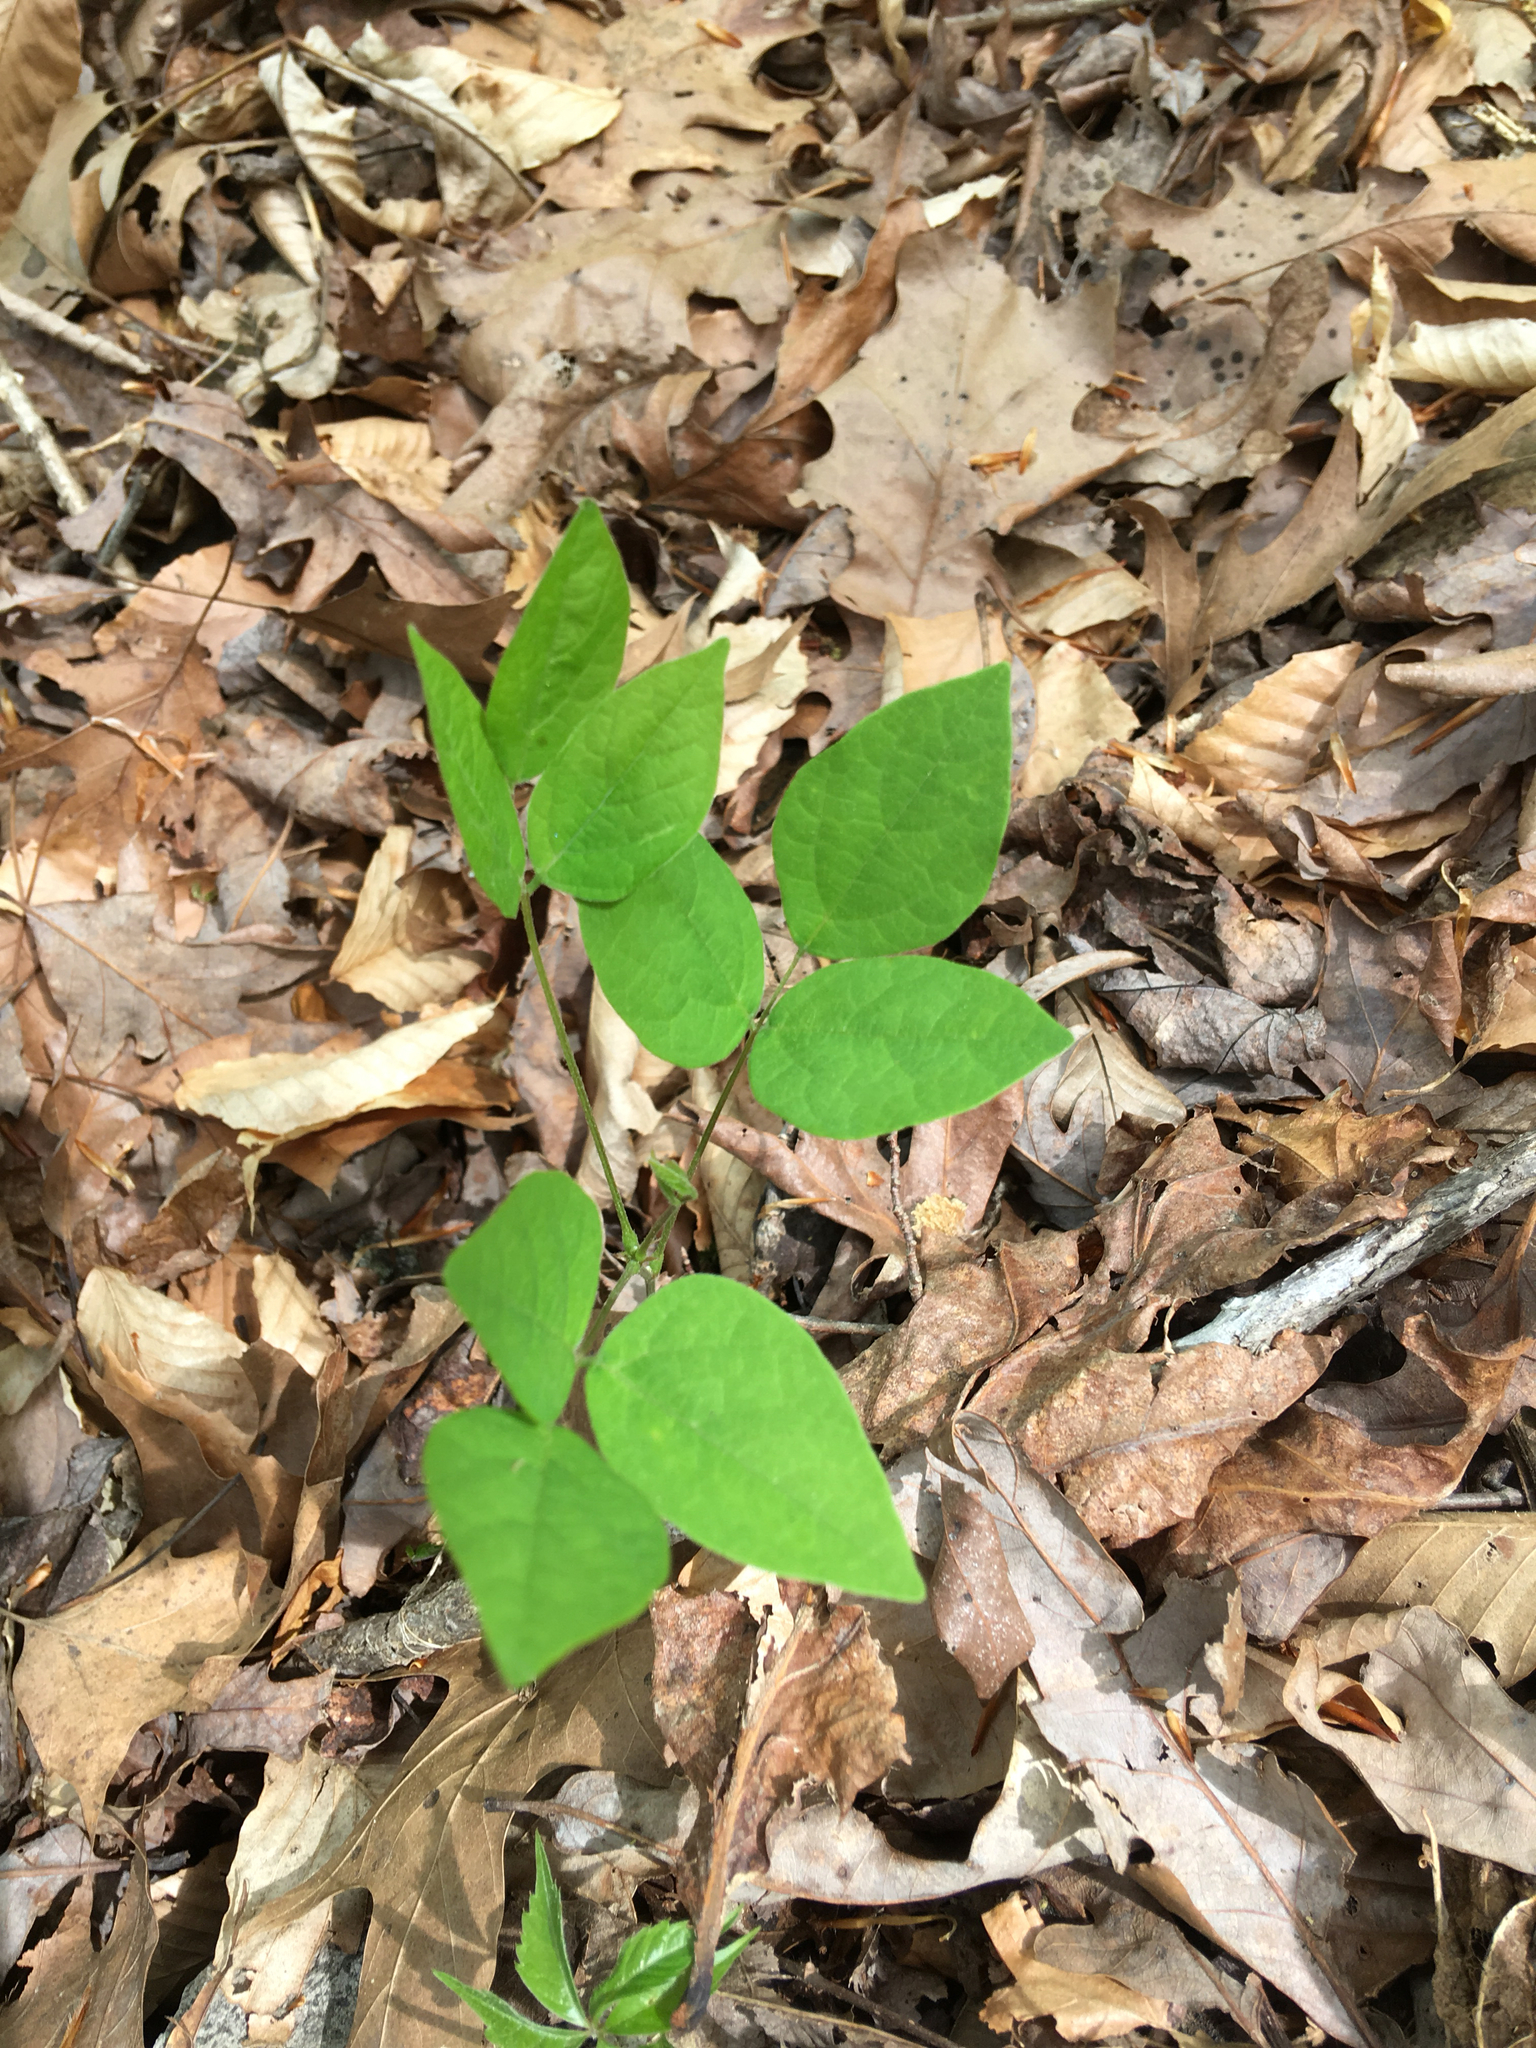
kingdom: Plantae
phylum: Tracheophyta
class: Magnoliopsida
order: Fabales
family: Fabaceae
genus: Amphicarpaea
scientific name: Amphicarpaea bracteata
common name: American hog peanut
